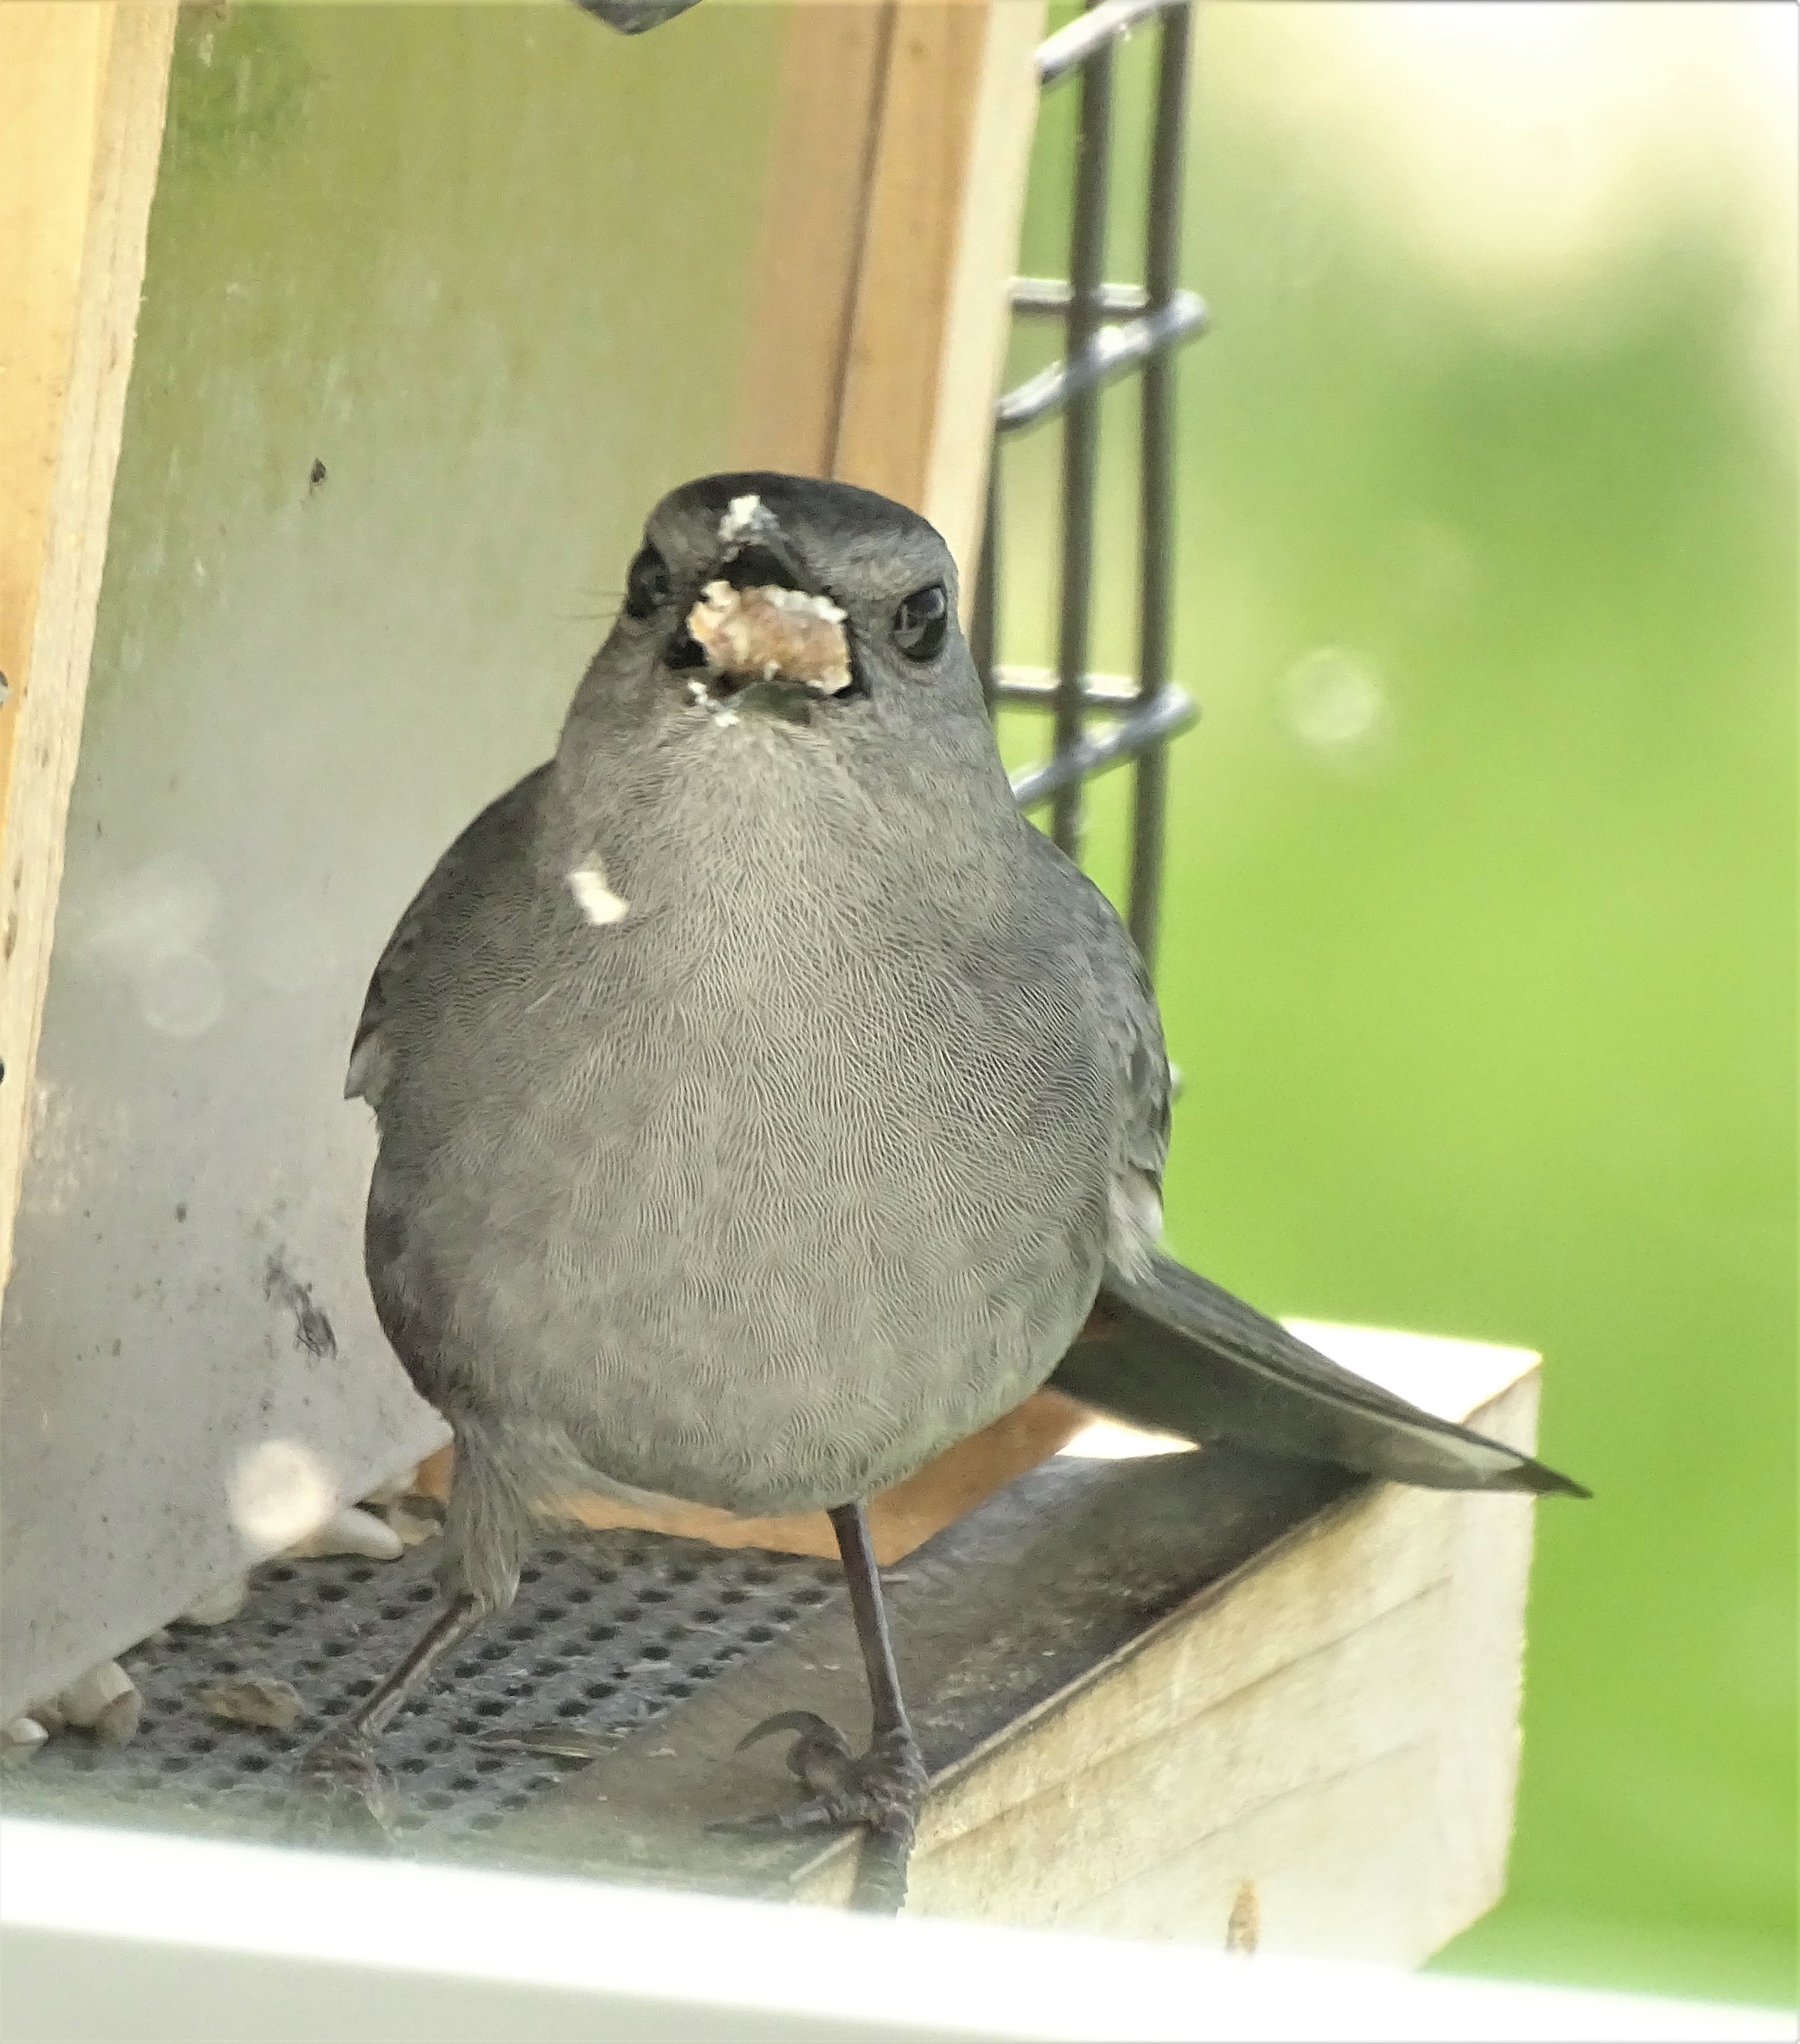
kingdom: Animalia
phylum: Chordata
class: Aves
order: Passeriformes
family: Mimidae
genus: Dumetella
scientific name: Dumetella carolinensis
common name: Gray catbird
